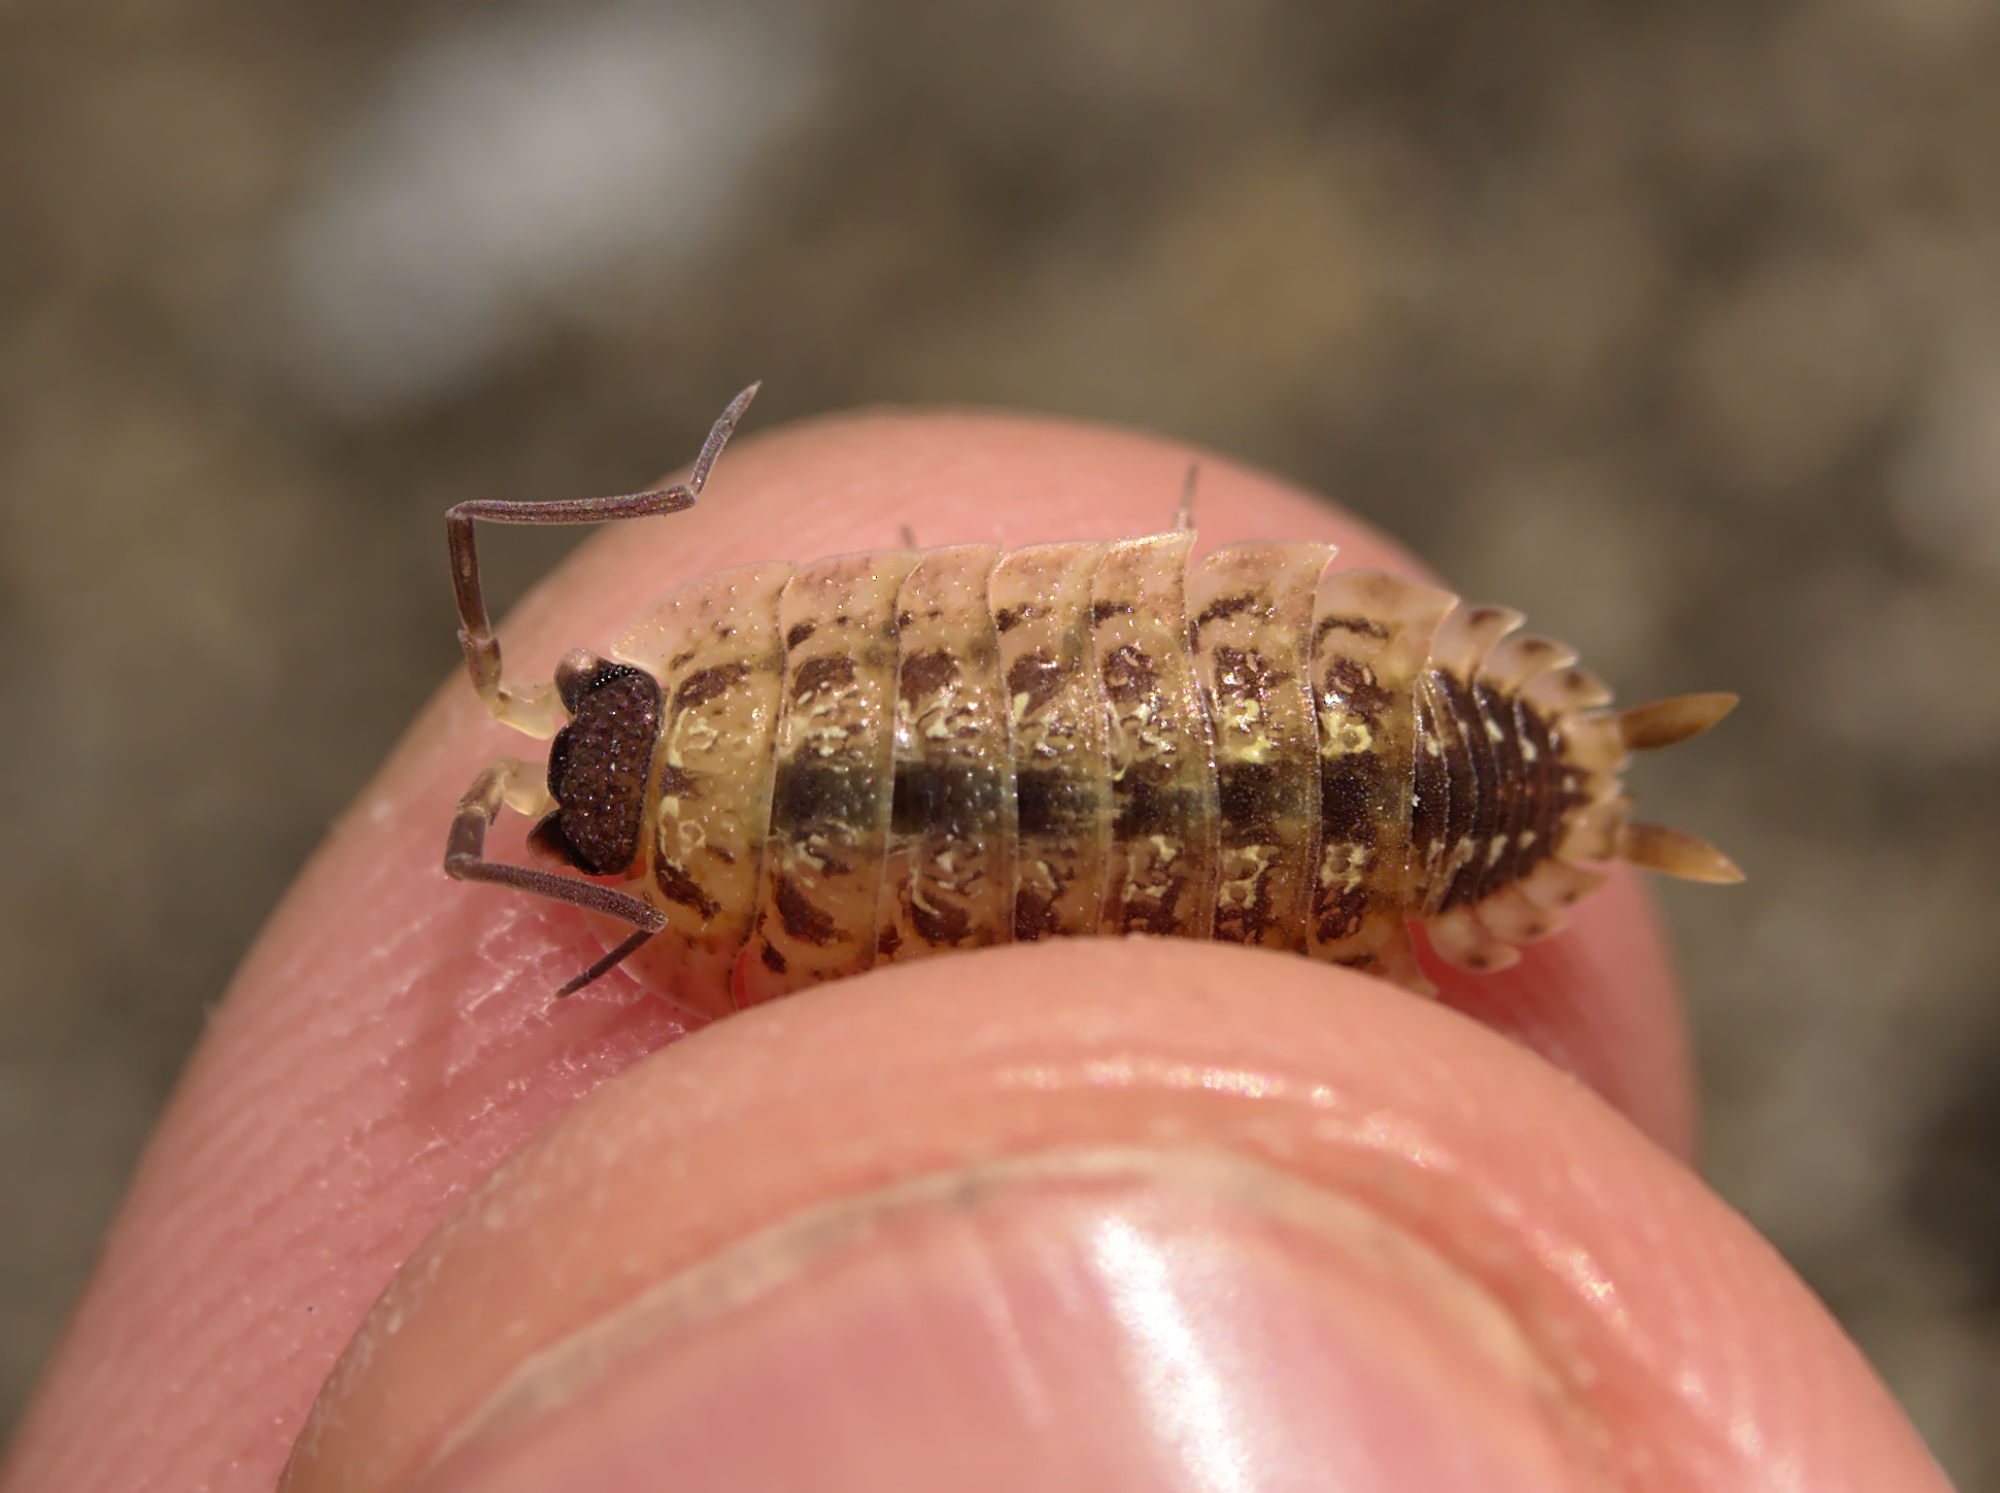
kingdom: Animalia
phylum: Arthropoda
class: Malacostraca
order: Isopoda
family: Porcellionidae
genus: Porcellio
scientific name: Porcellio spinicornis
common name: Painted woodlouse
